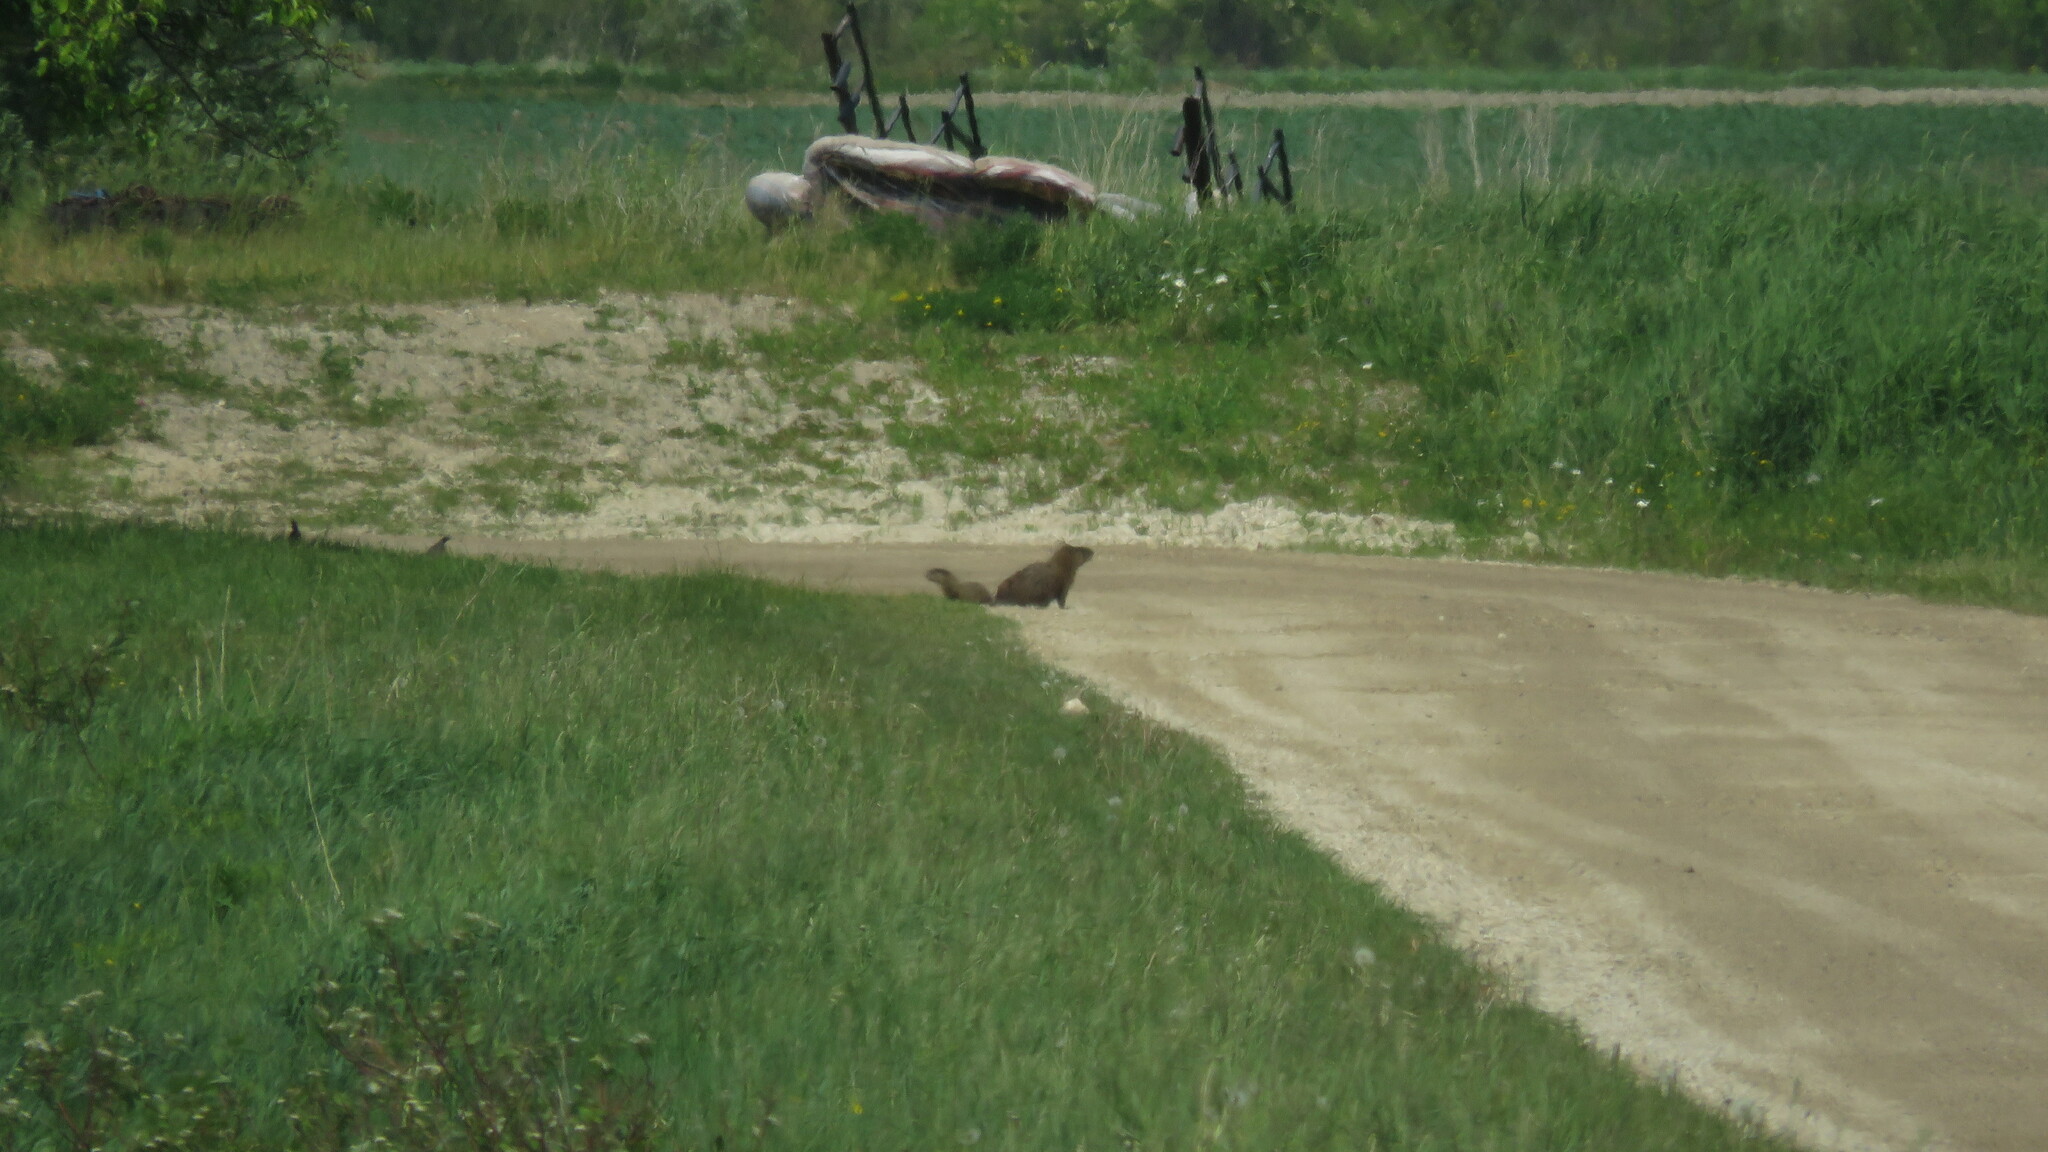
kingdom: Animalia
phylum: Chordata
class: Mammalia
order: Rodentia
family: Sciuridae
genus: Marmota
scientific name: Marmota monax
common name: Groundhog
